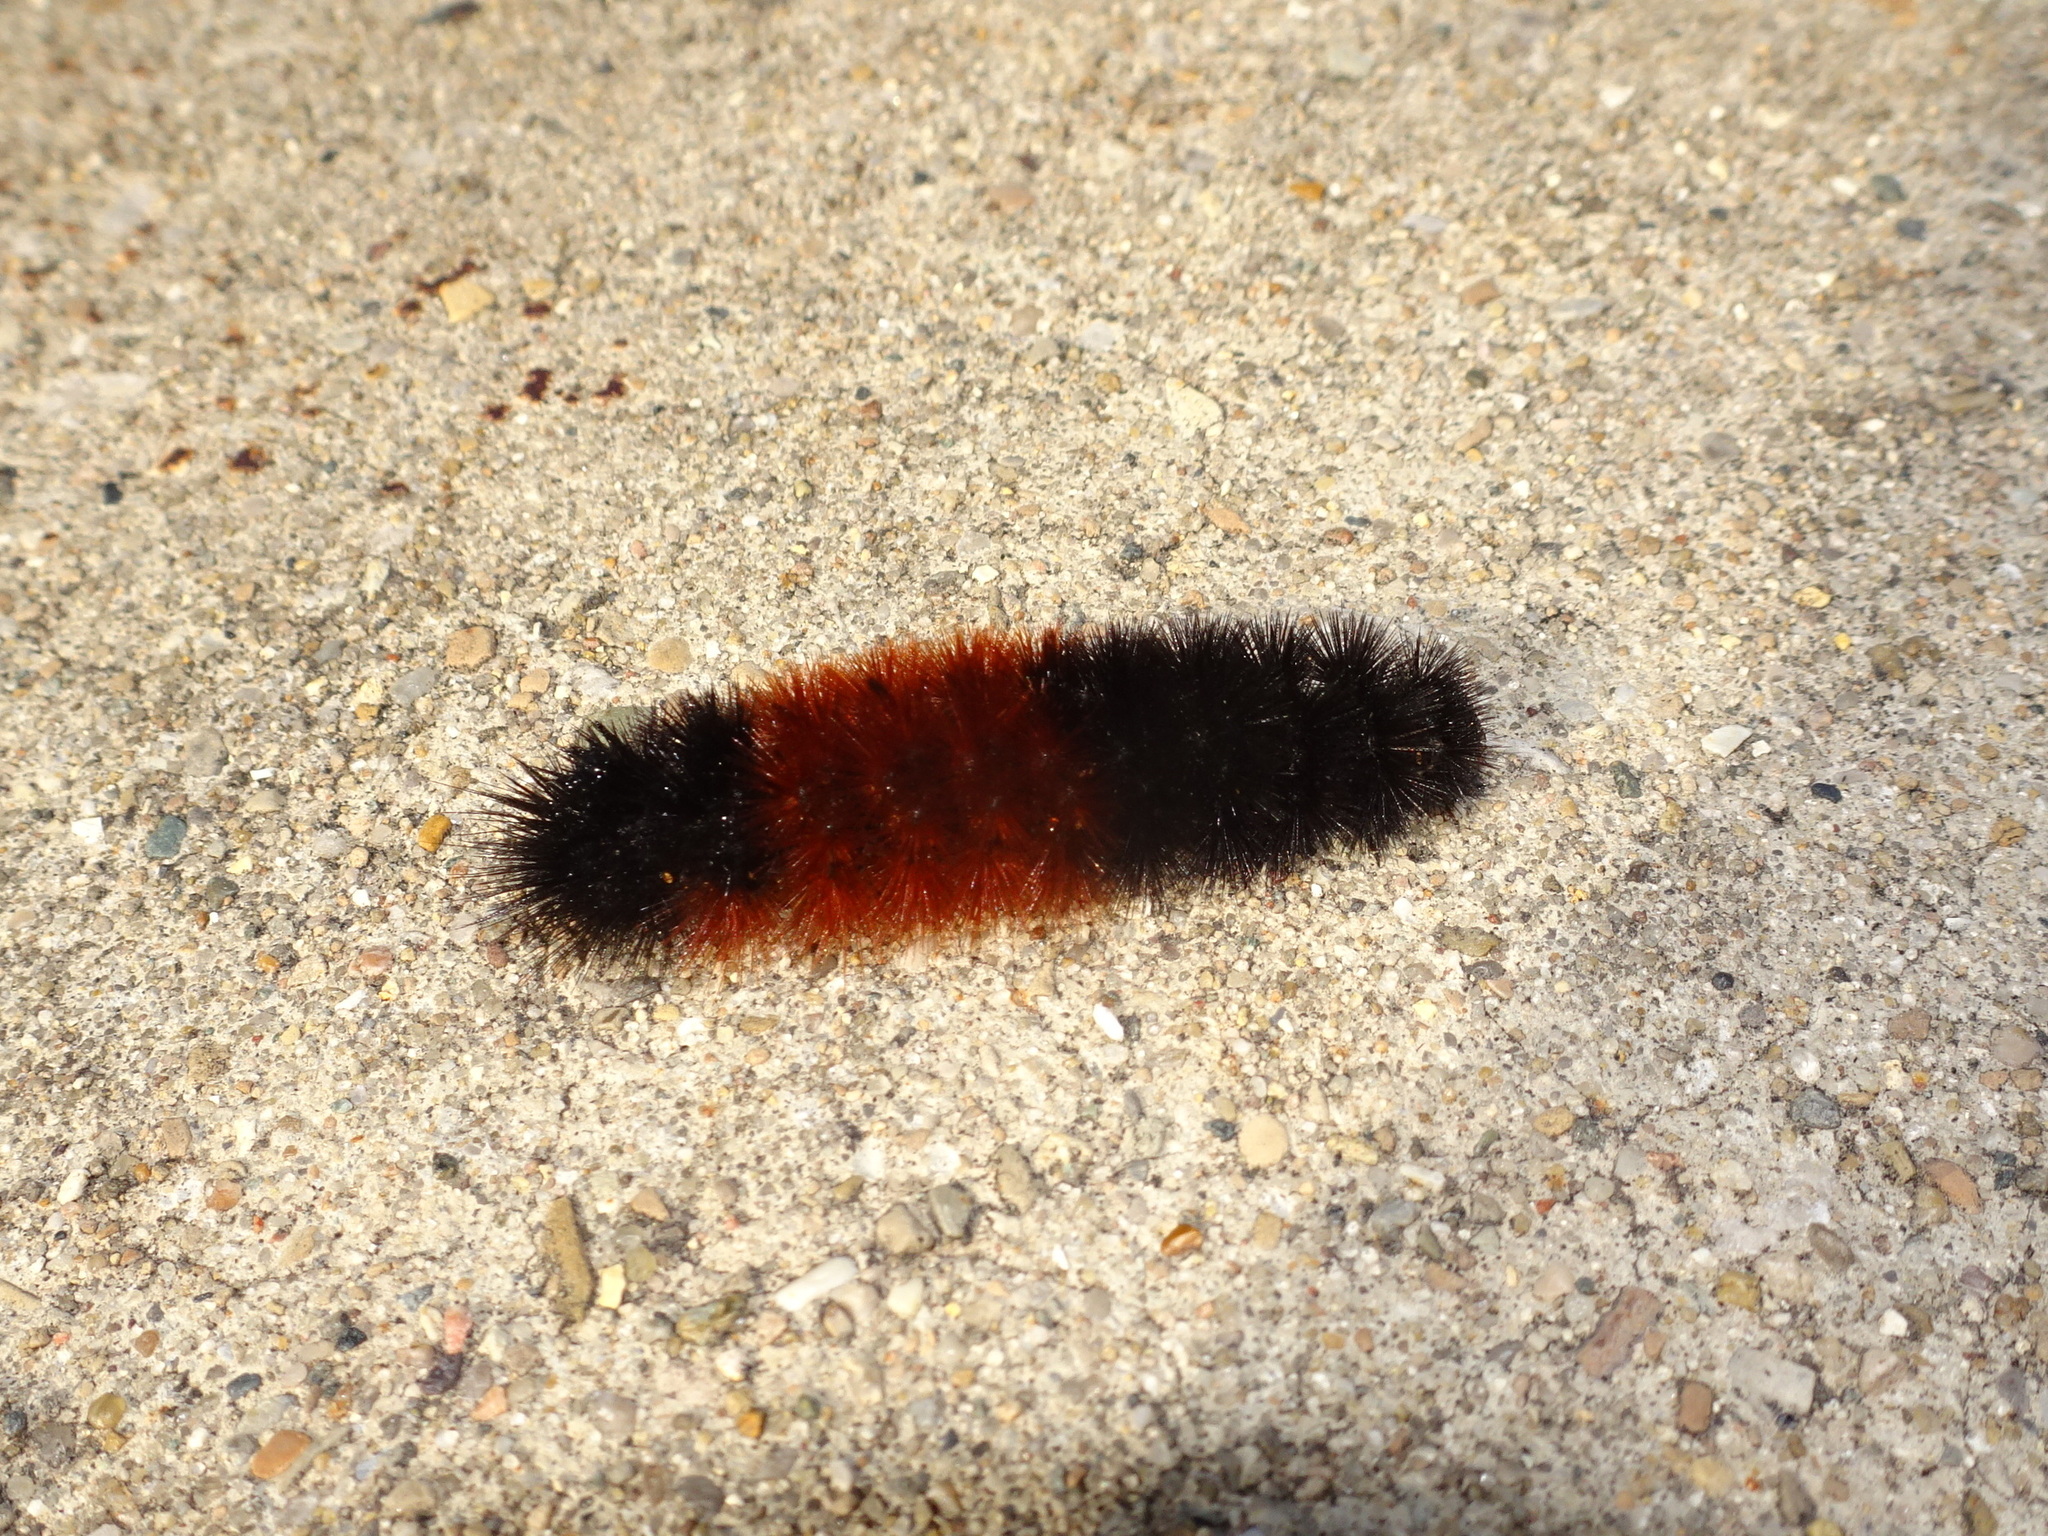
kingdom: Animalia
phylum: Arthropoda
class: Insecta
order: Lepidoptera
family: Erebidae
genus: Pyrrharctia
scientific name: Pyrrharctia isabella
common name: Isabella tiger moth
